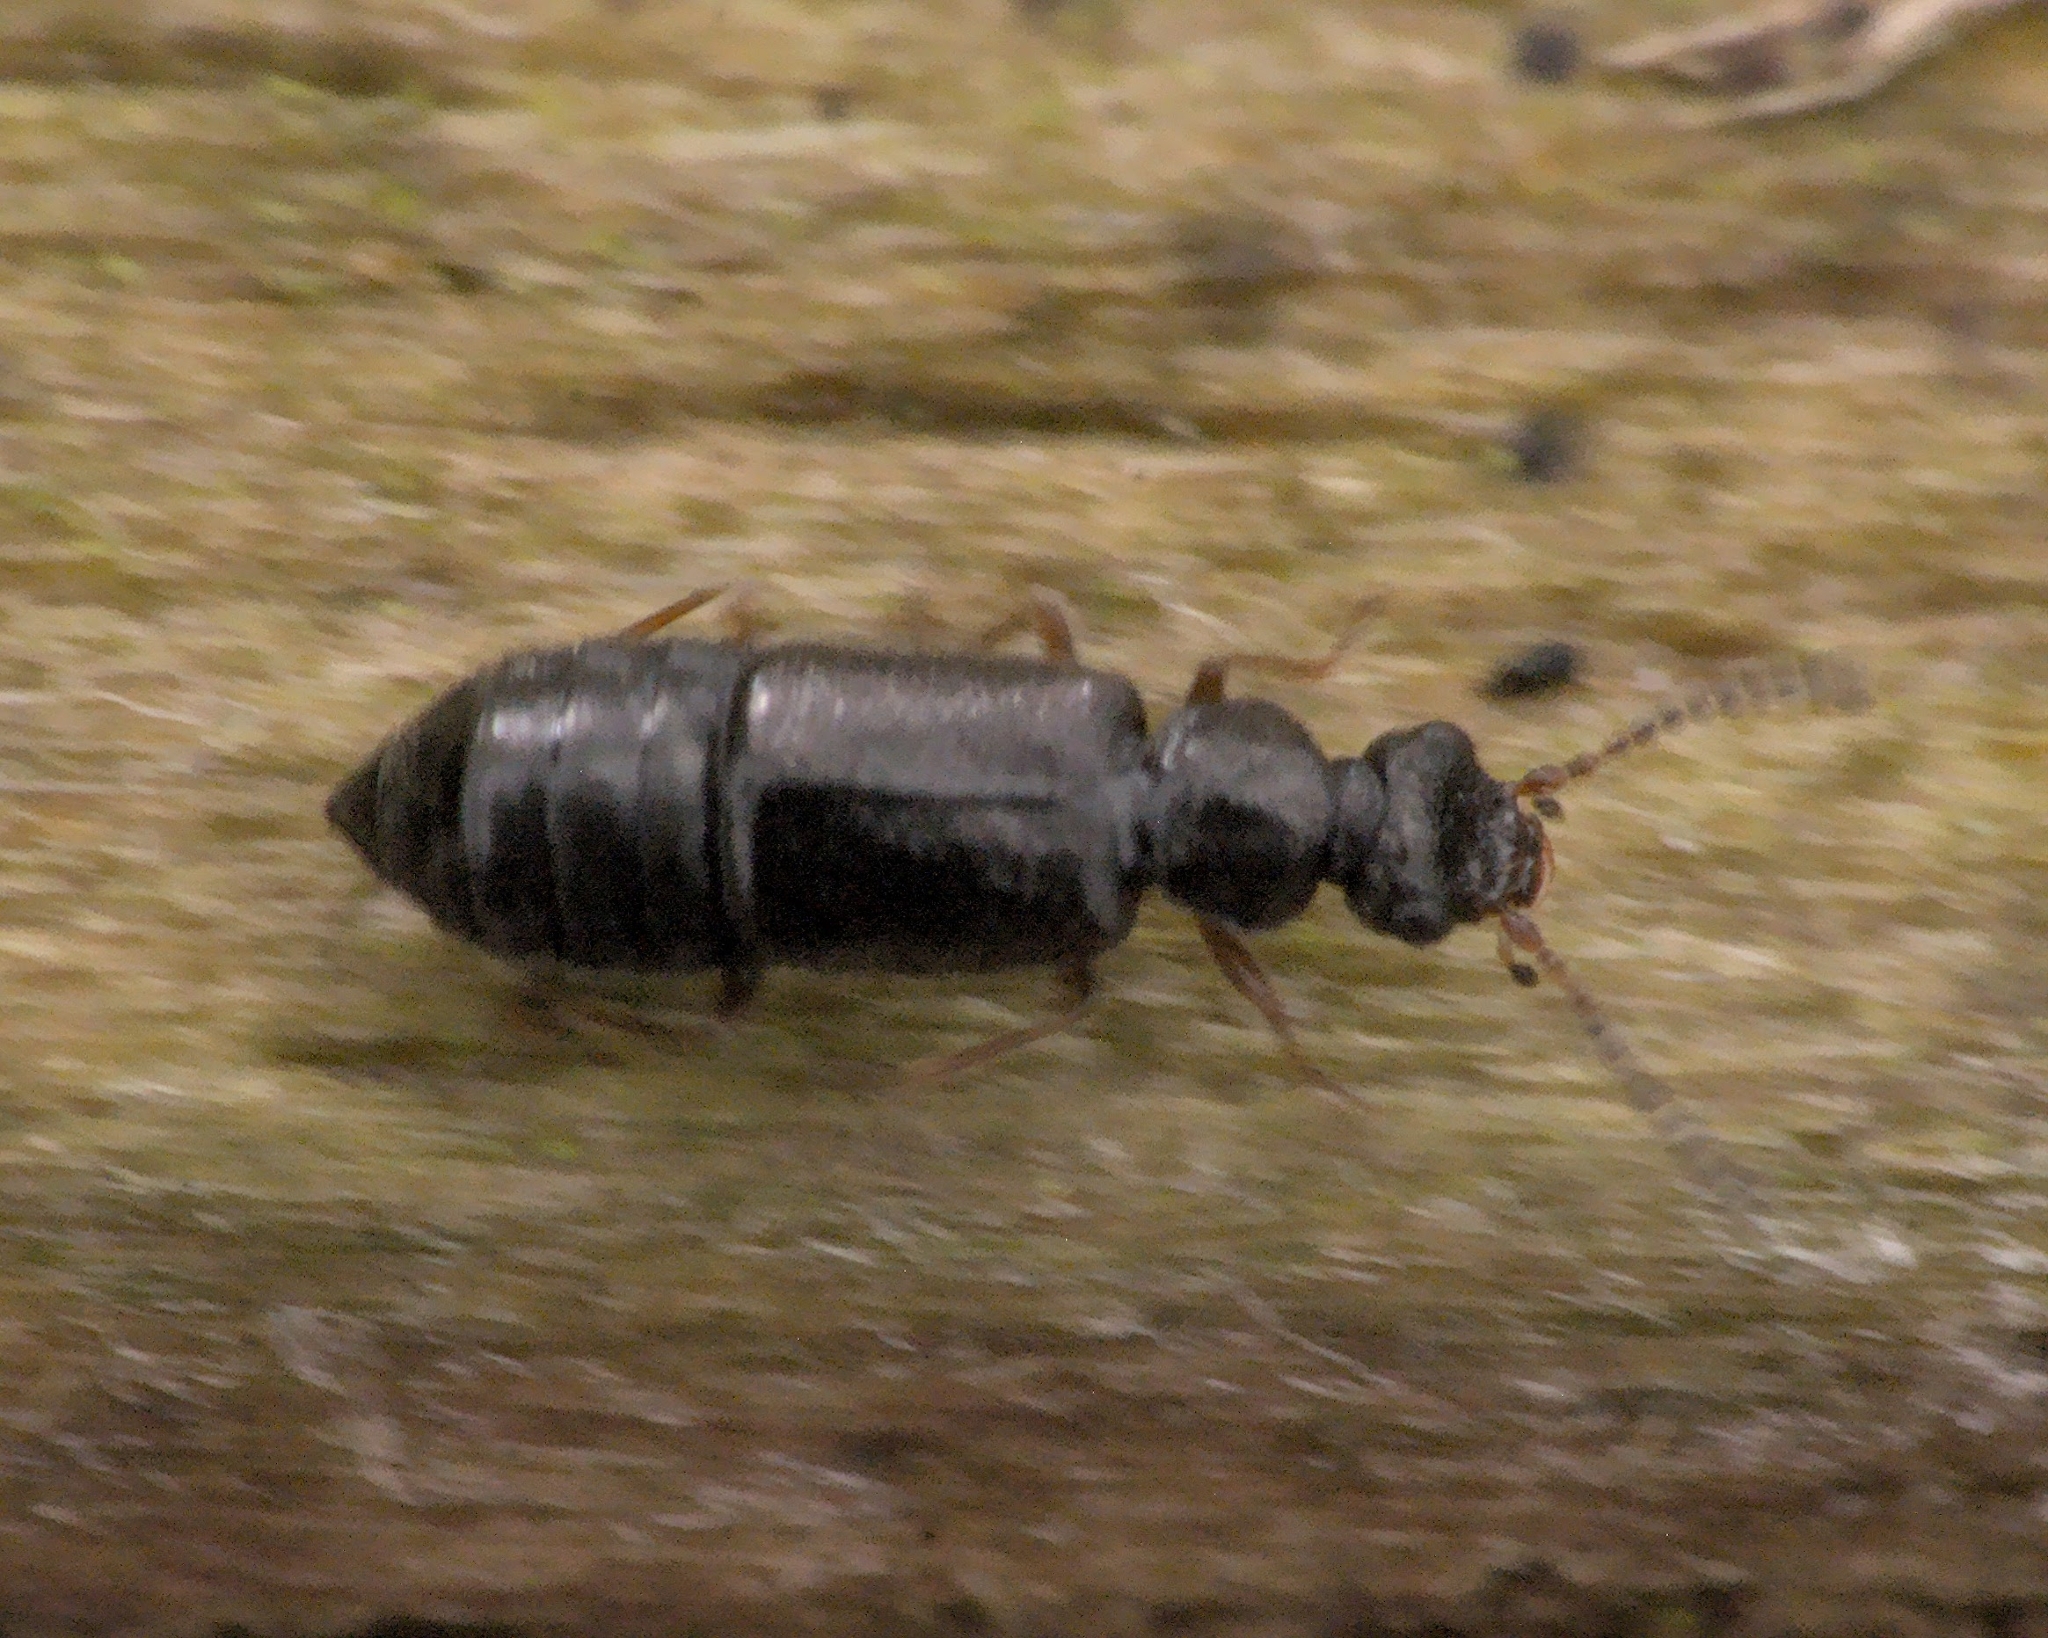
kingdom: Animalia
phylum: Arthropoda
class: Insecta
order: Coleoptera
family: Staphylinidae
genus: Coryphium
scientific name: Coryphium angusticolle
